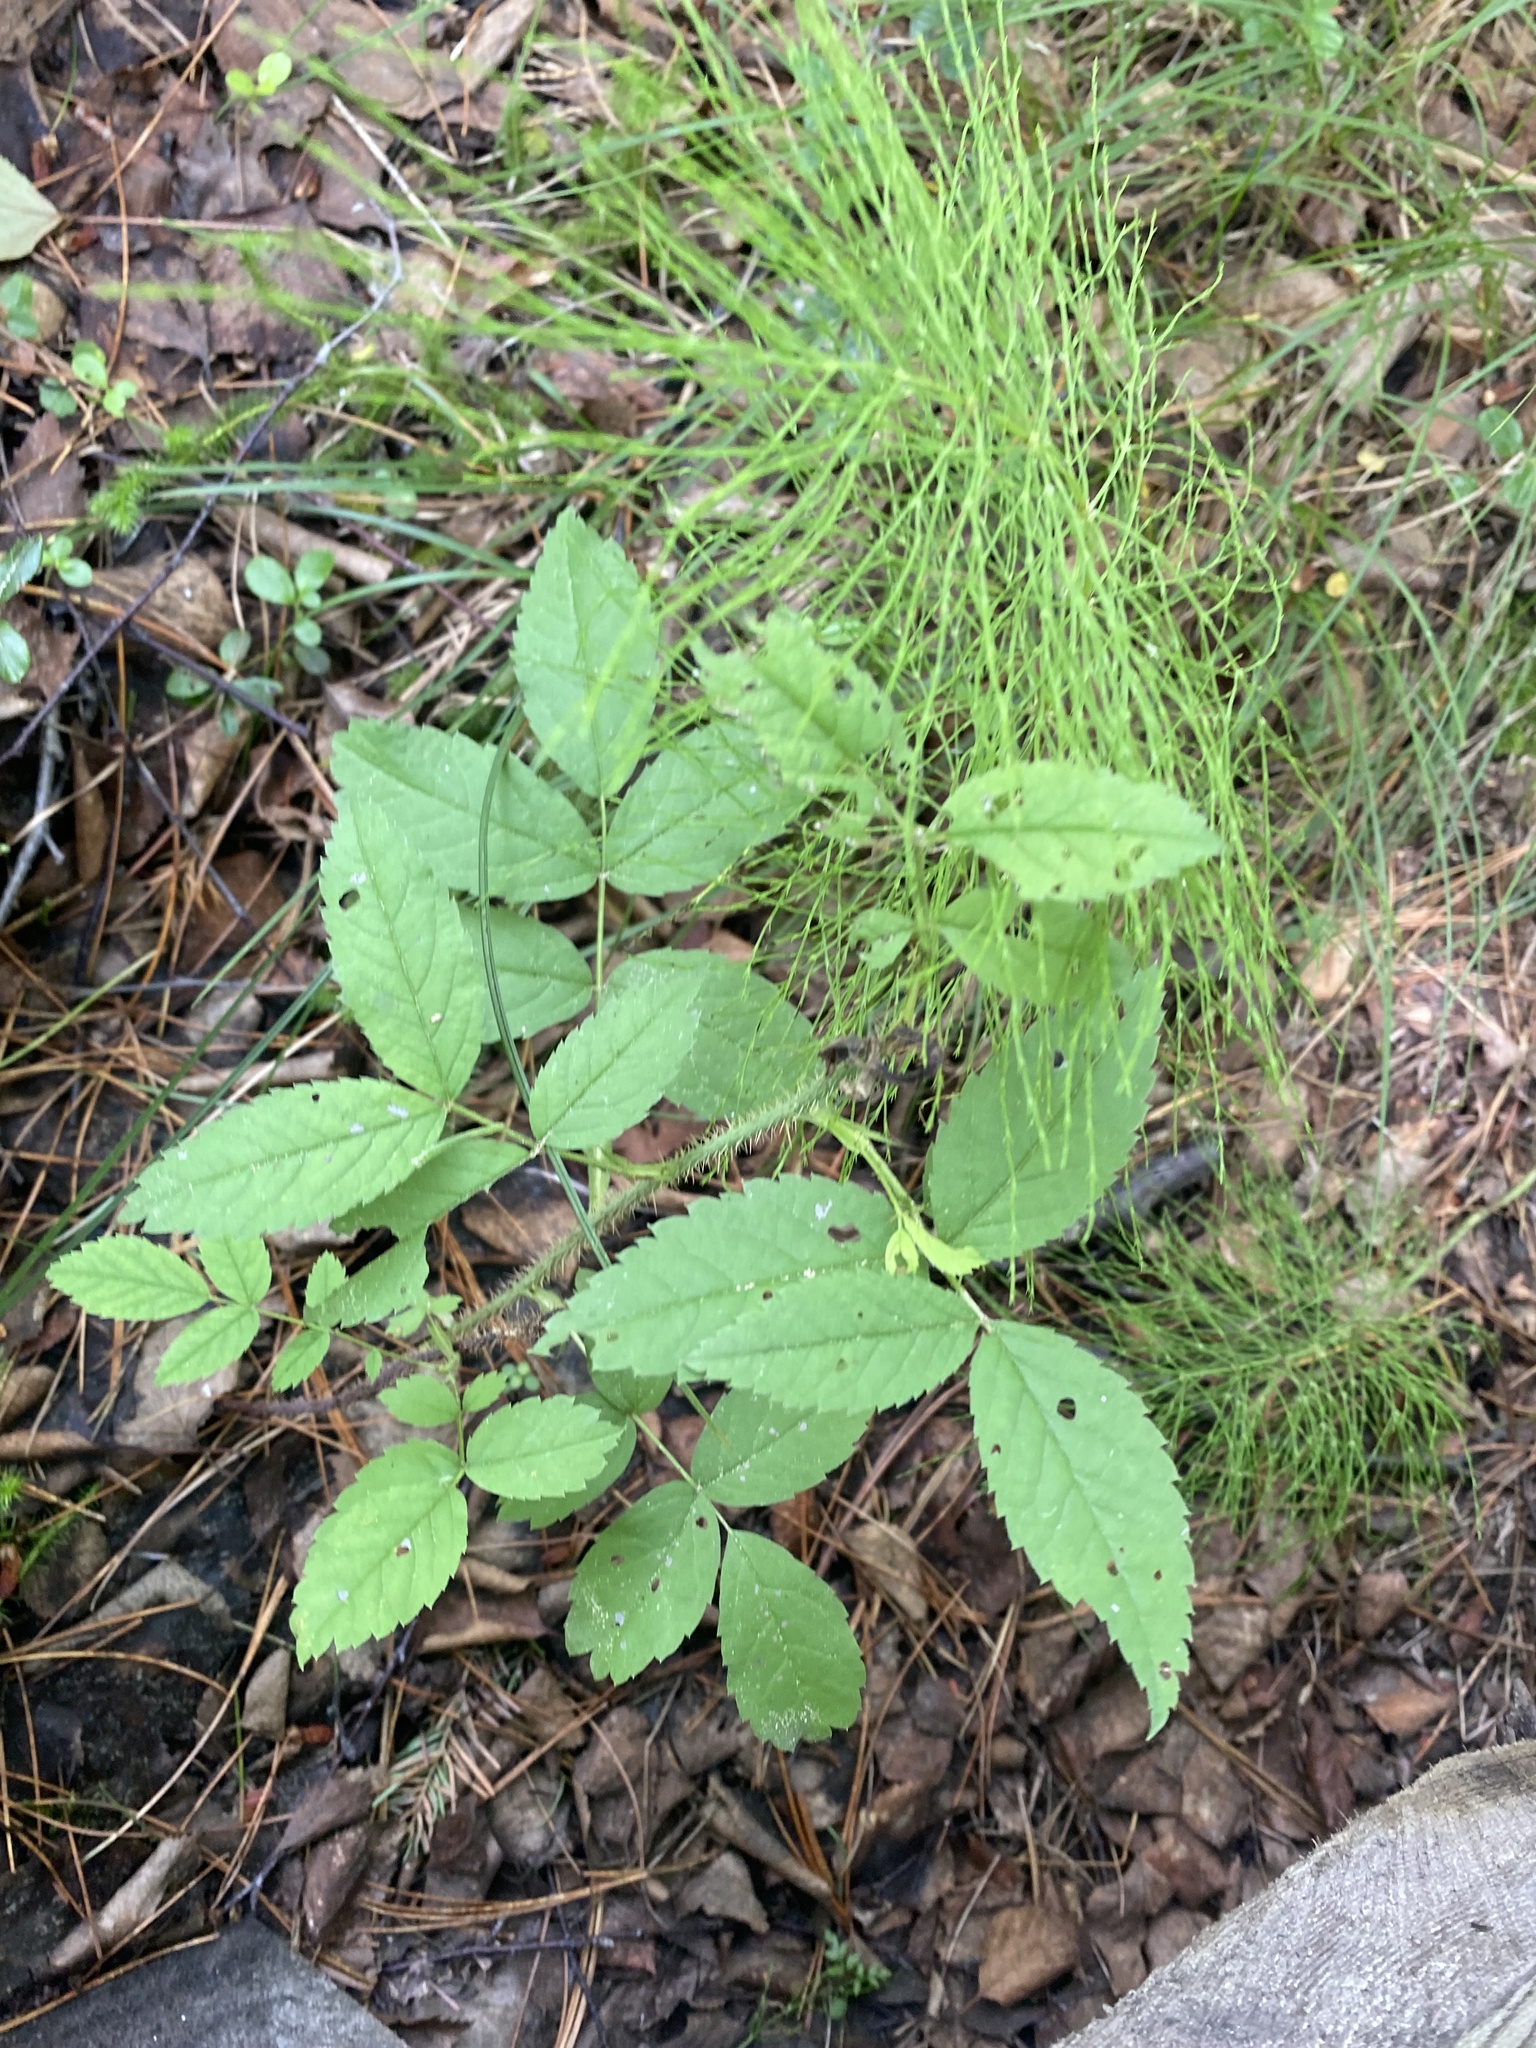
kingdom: Plantae
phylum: Tracheophyta
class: Magnoliopsida
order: Rosales
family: Rosaceae
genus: Rosa
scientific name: Rosa acicularis
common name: Prickly rose
